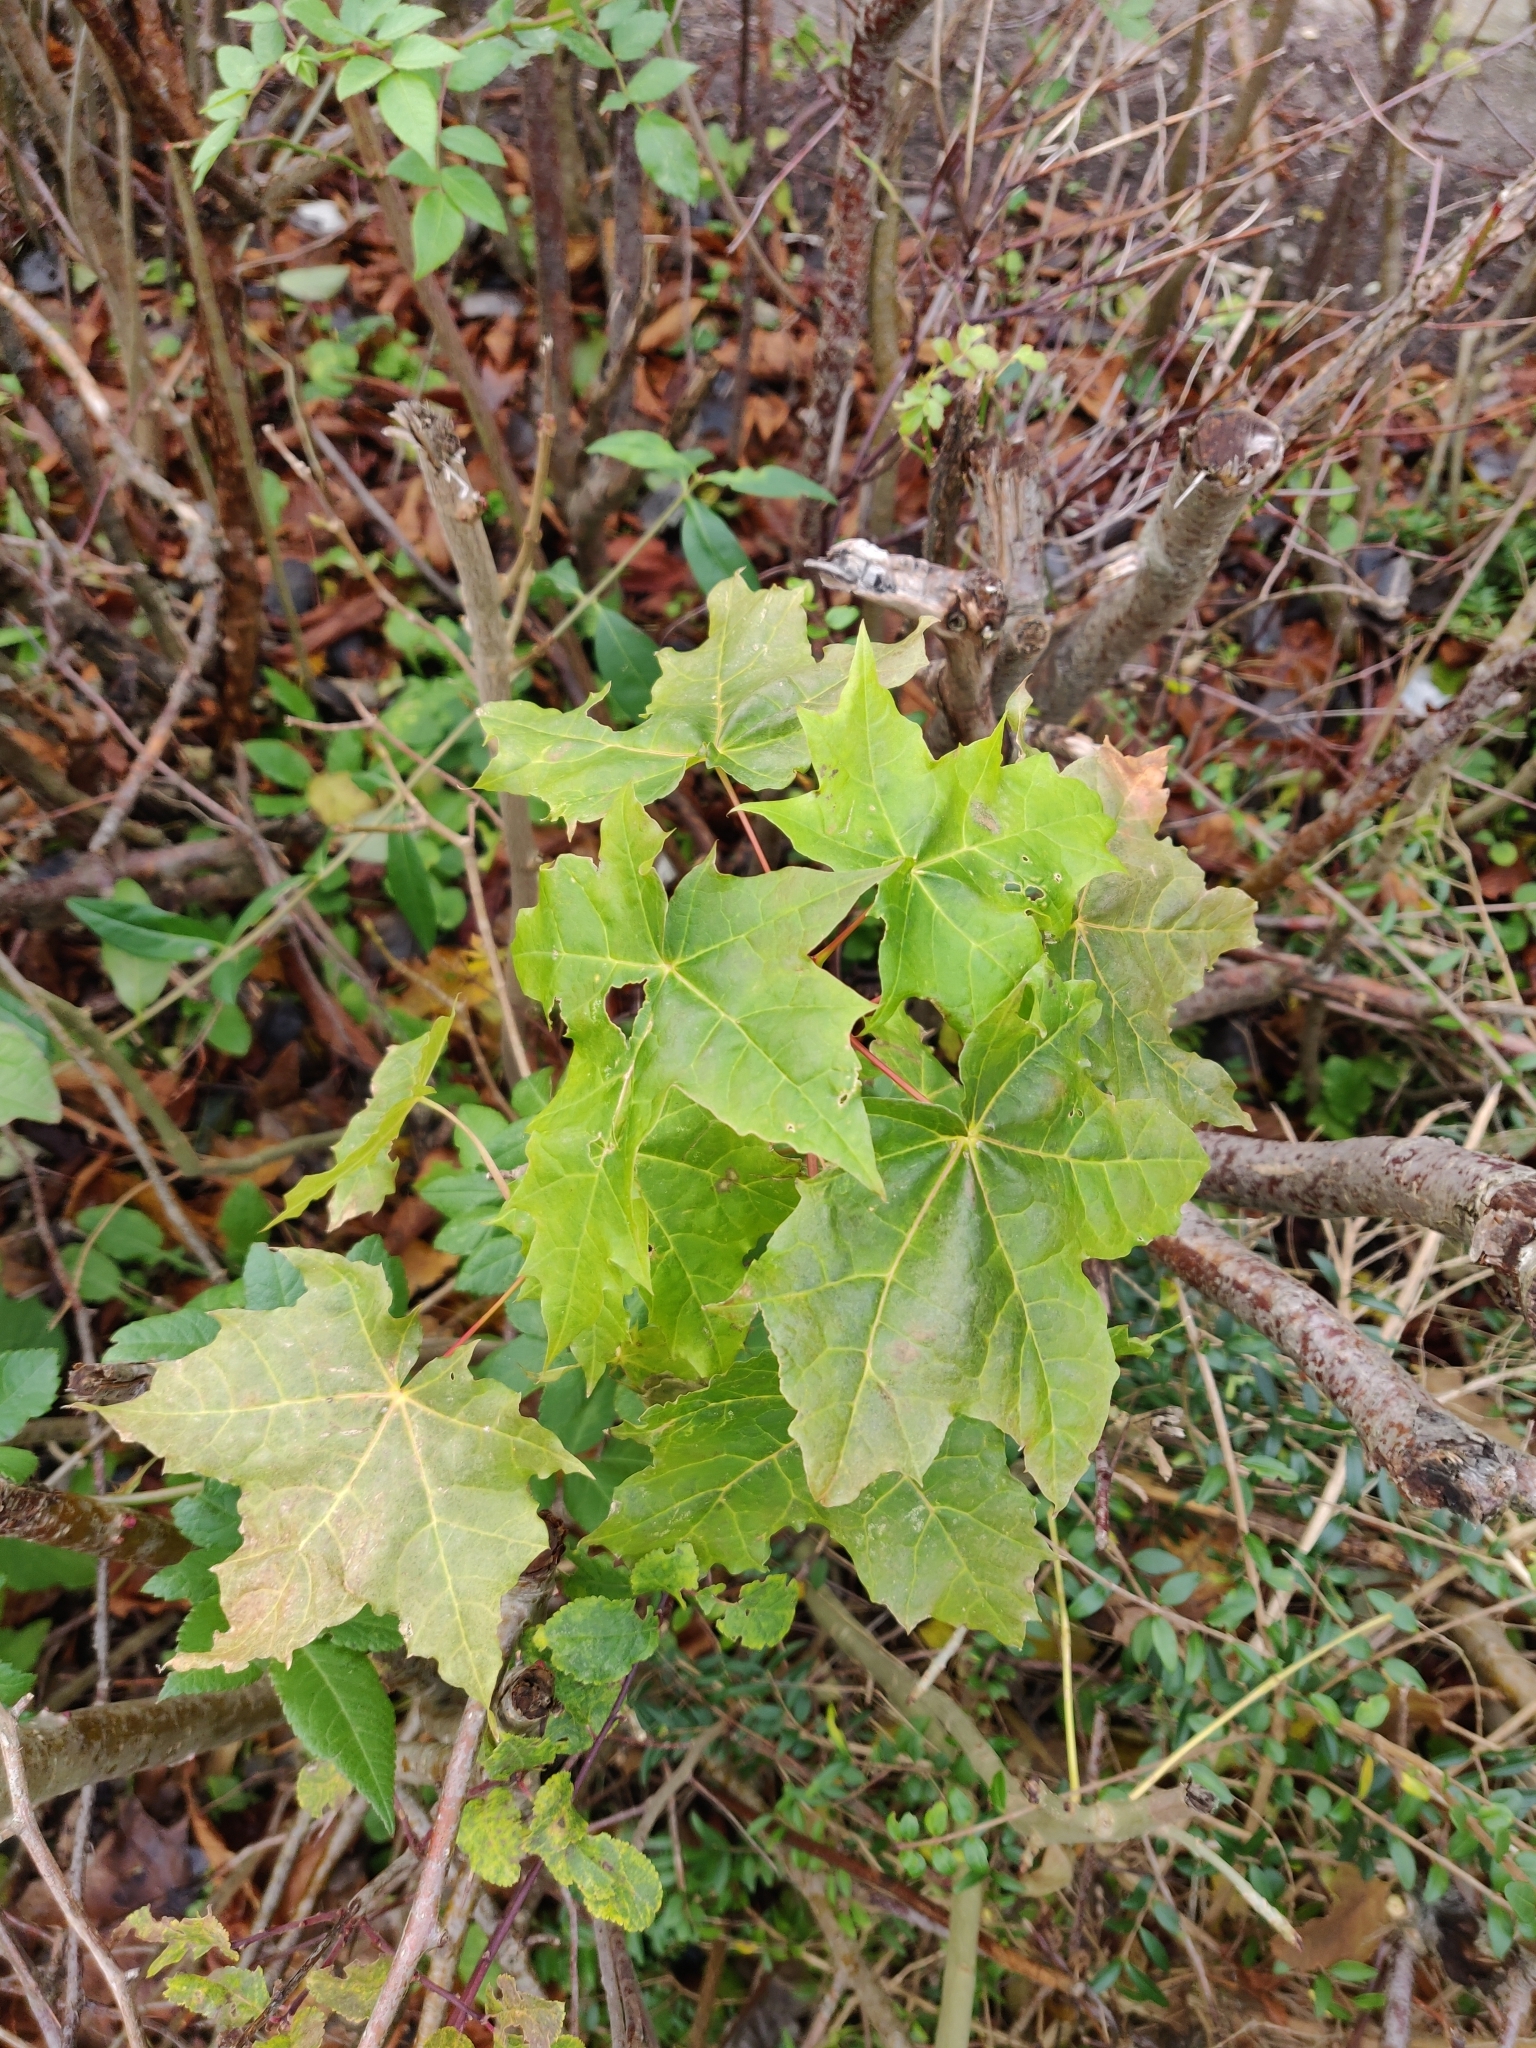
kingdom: Plantae
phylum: Tracheophyta
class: Magnoliopsida
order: Sapindales
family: Sapindaceae
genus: Acer
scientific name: Acer platanoides
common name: Norway maple
